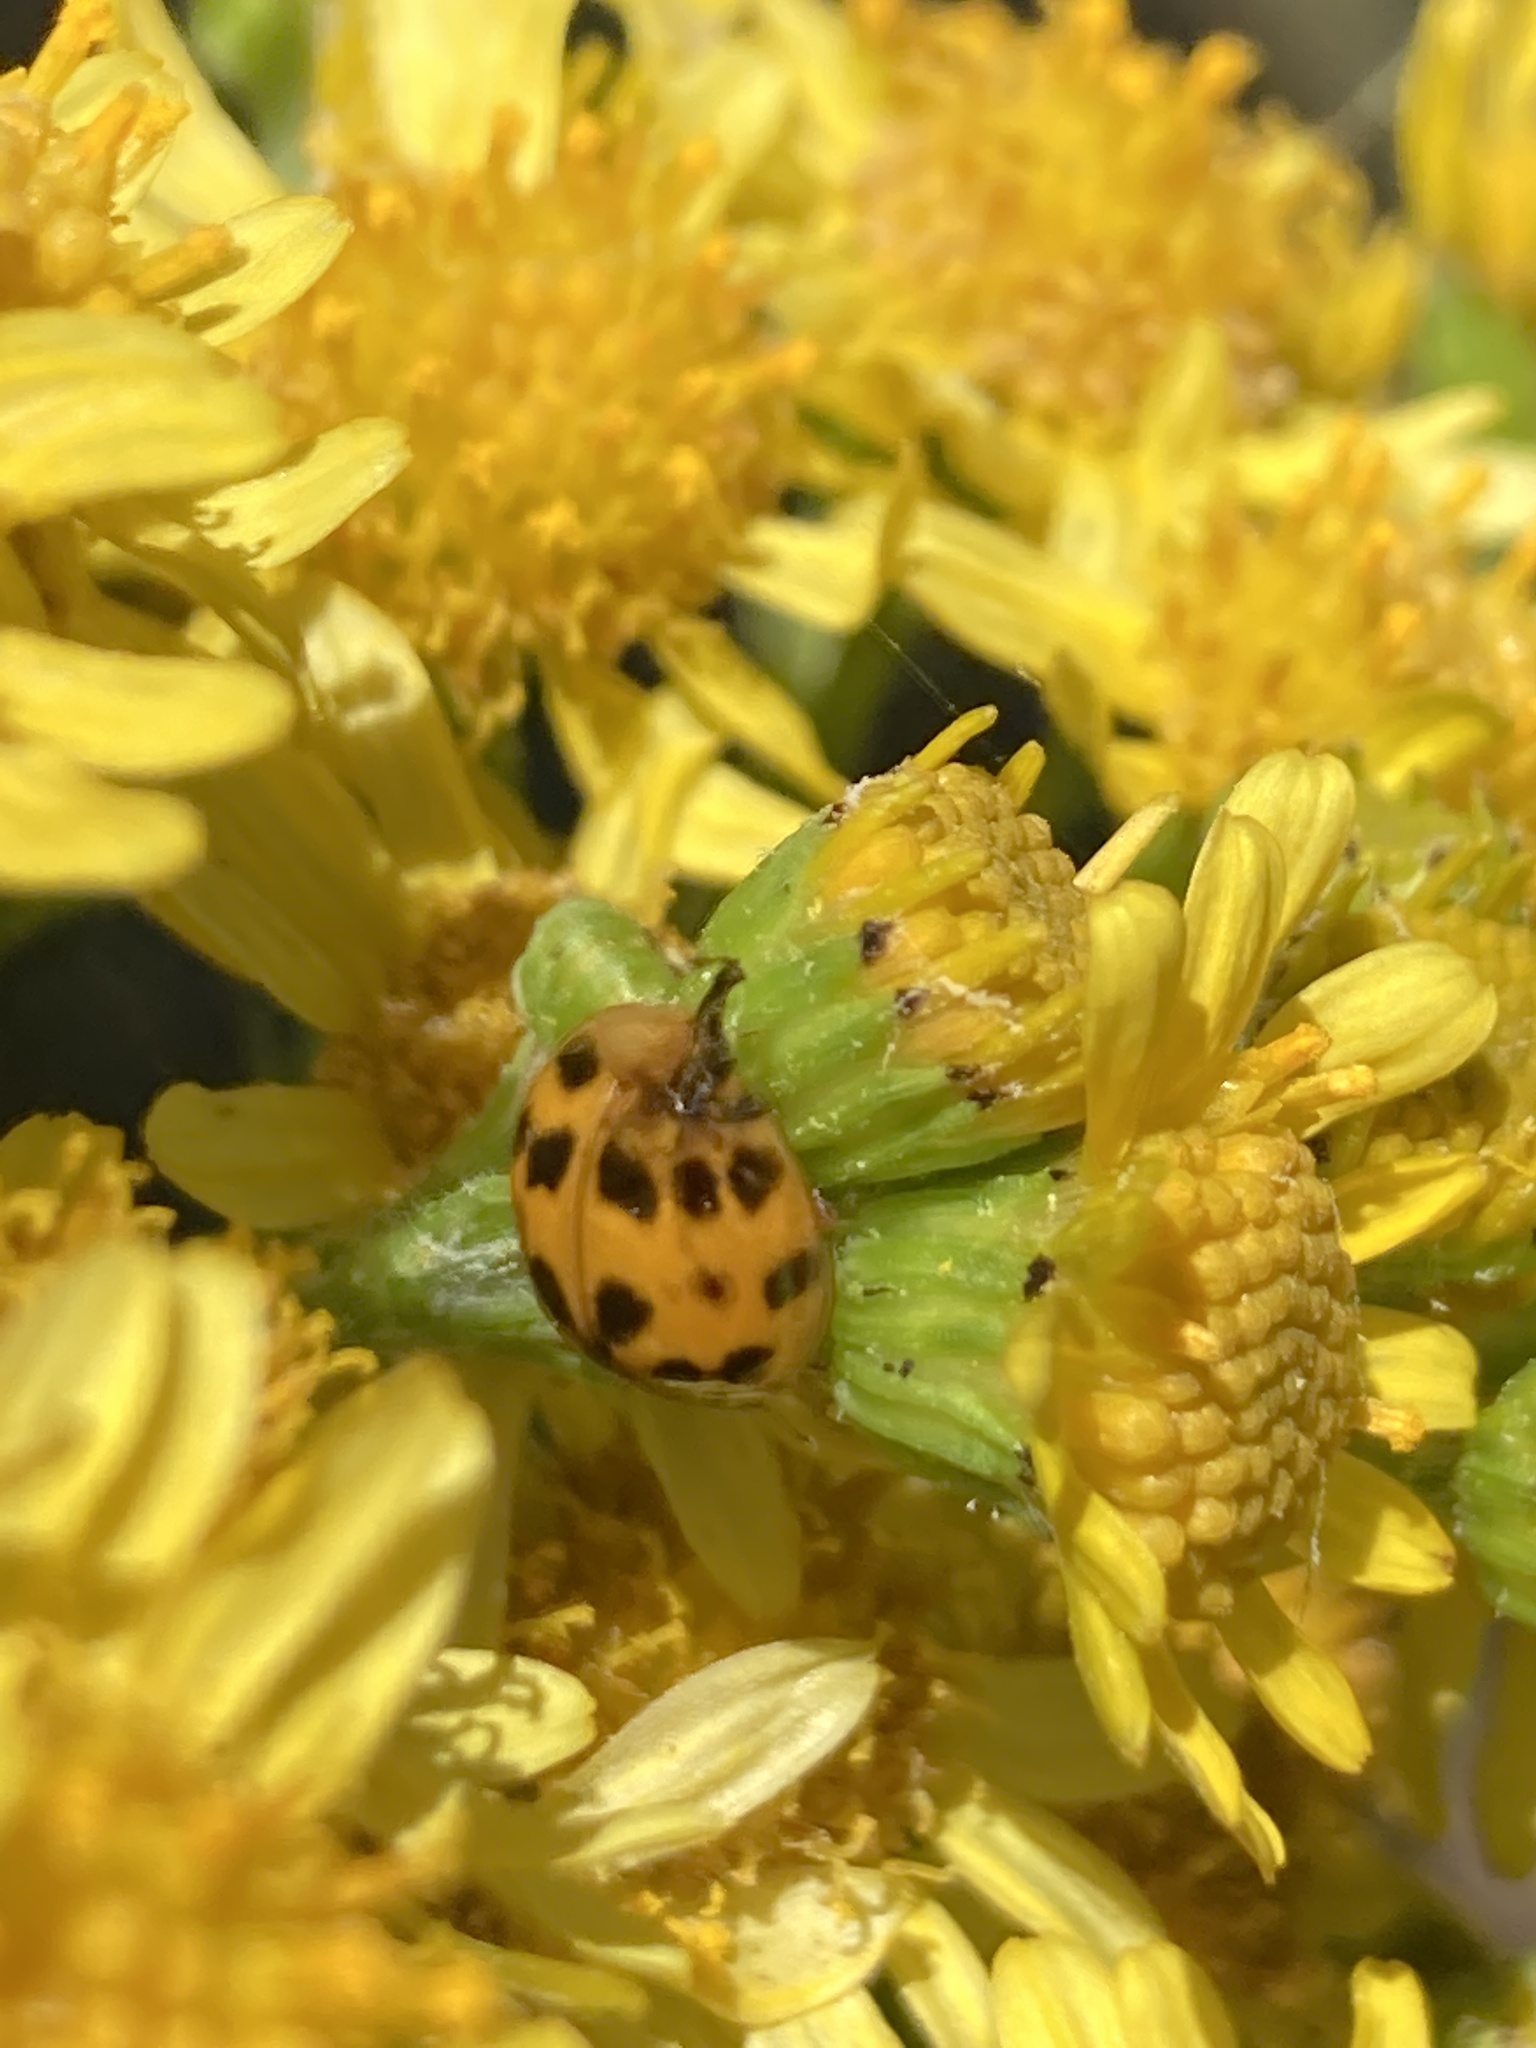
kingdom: Animalia
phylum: Arthropoda
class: Insecta
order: Coleoptera
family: Coccinellidae
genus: Harmonia
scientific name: Harmonia axyridis
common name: Harlequin ladybird
